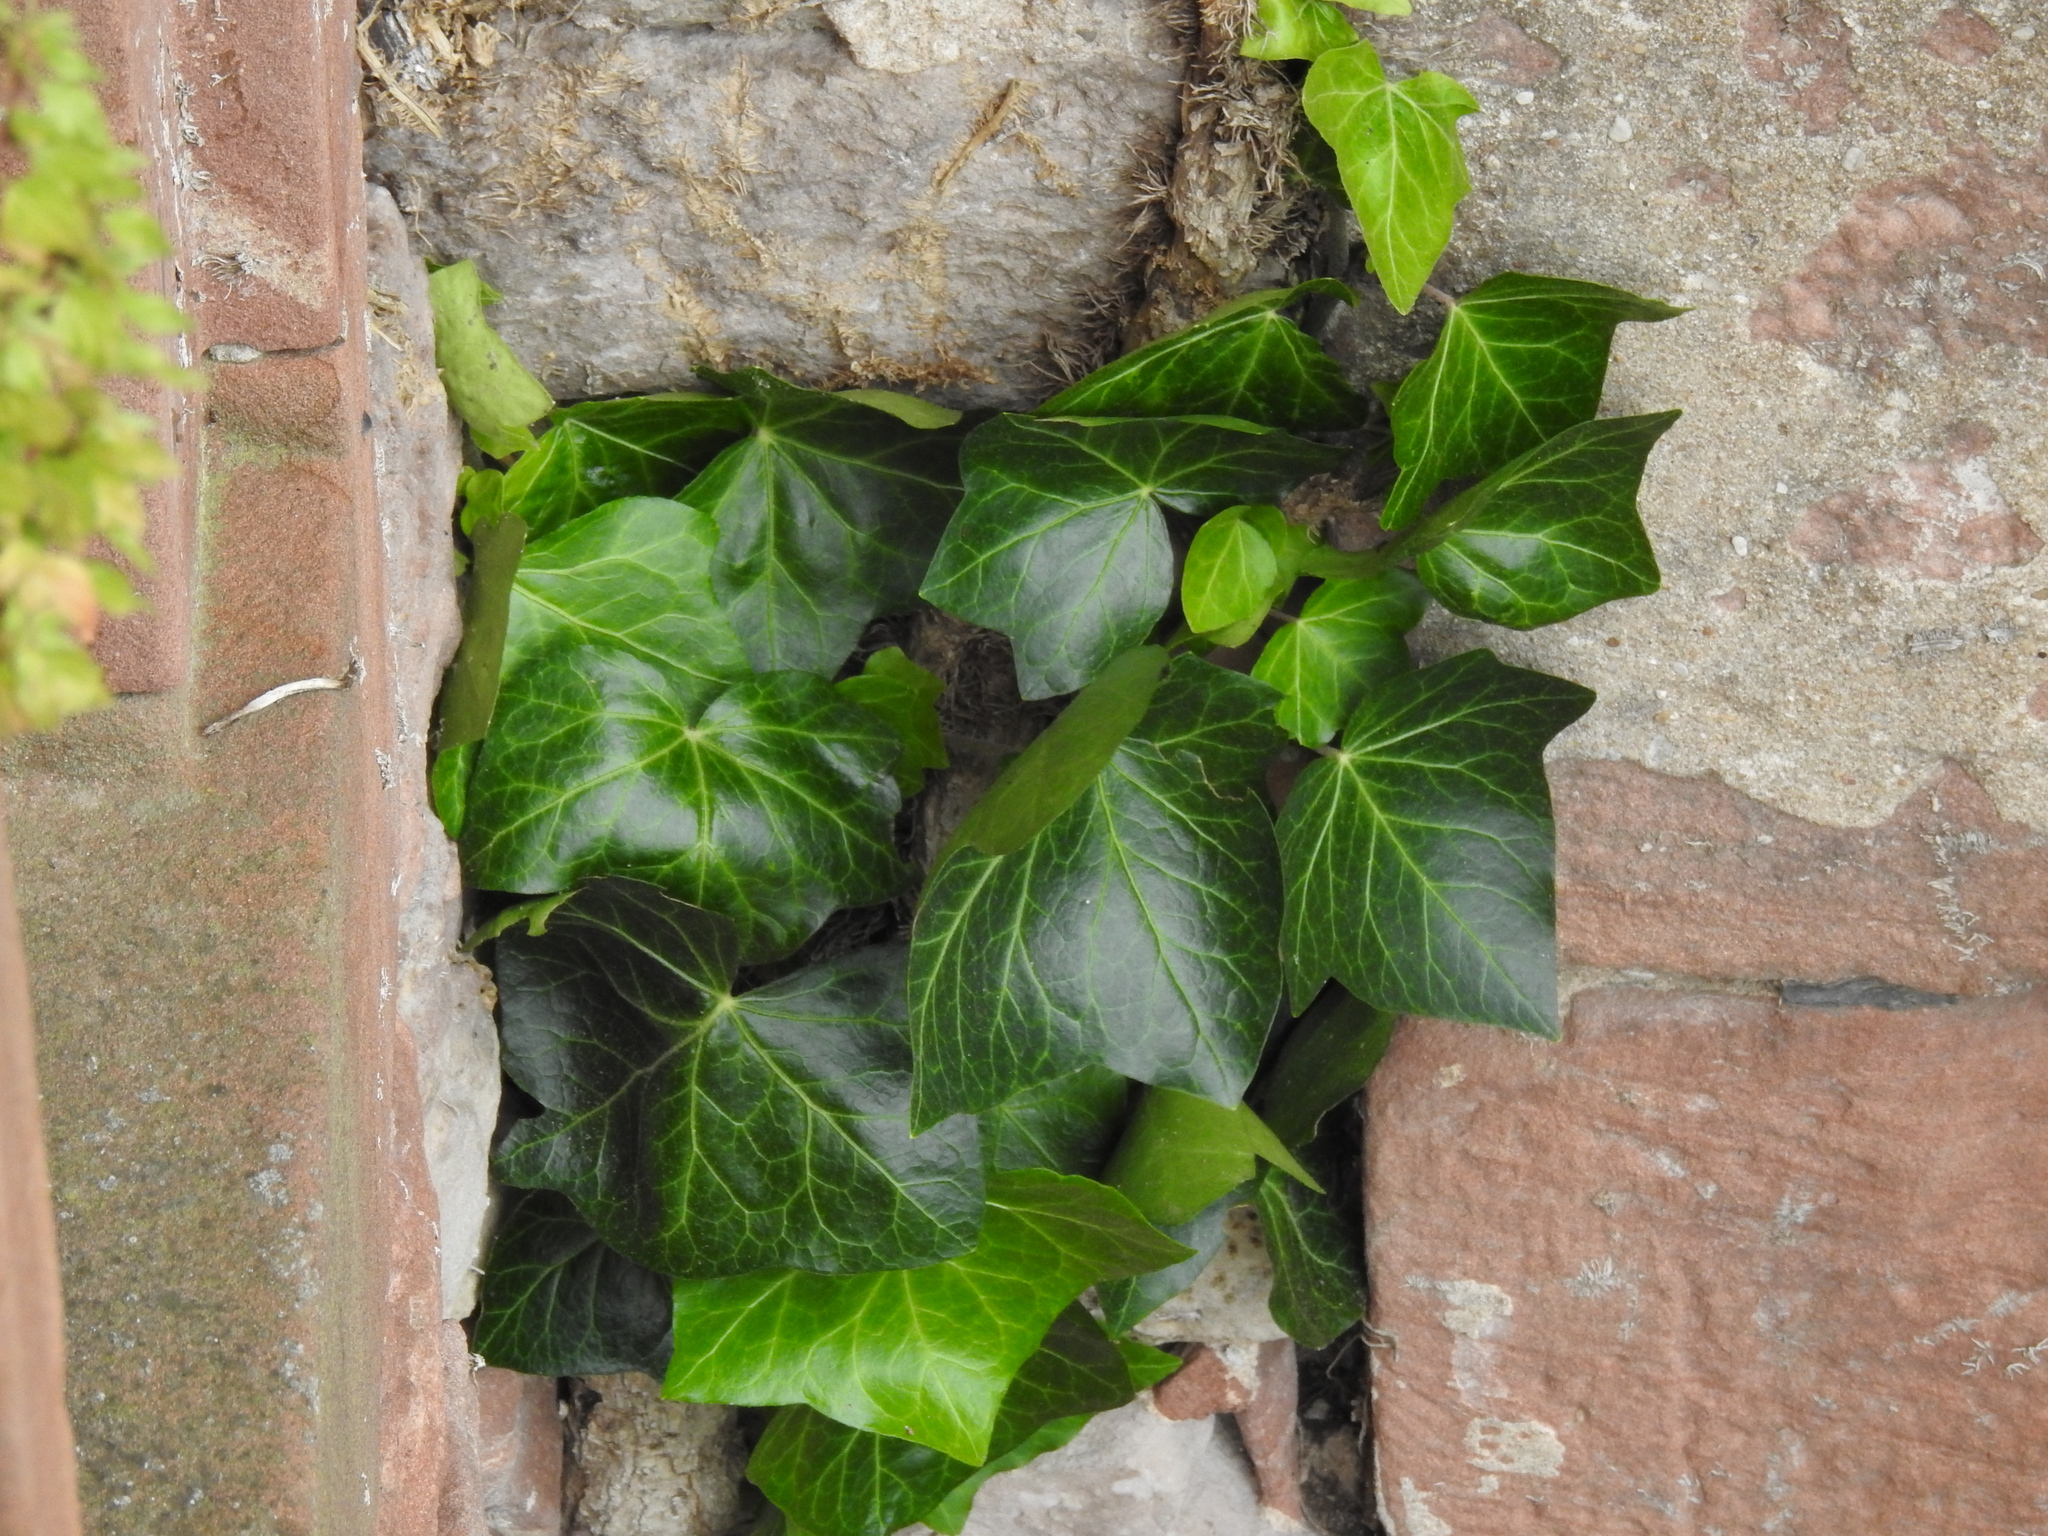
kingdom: Plantae
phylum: Tracheophyta
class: Magnoliopsida
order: Apiales
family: Araliaceae
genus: Hedera
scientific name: Hedera helix
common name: Ivy
